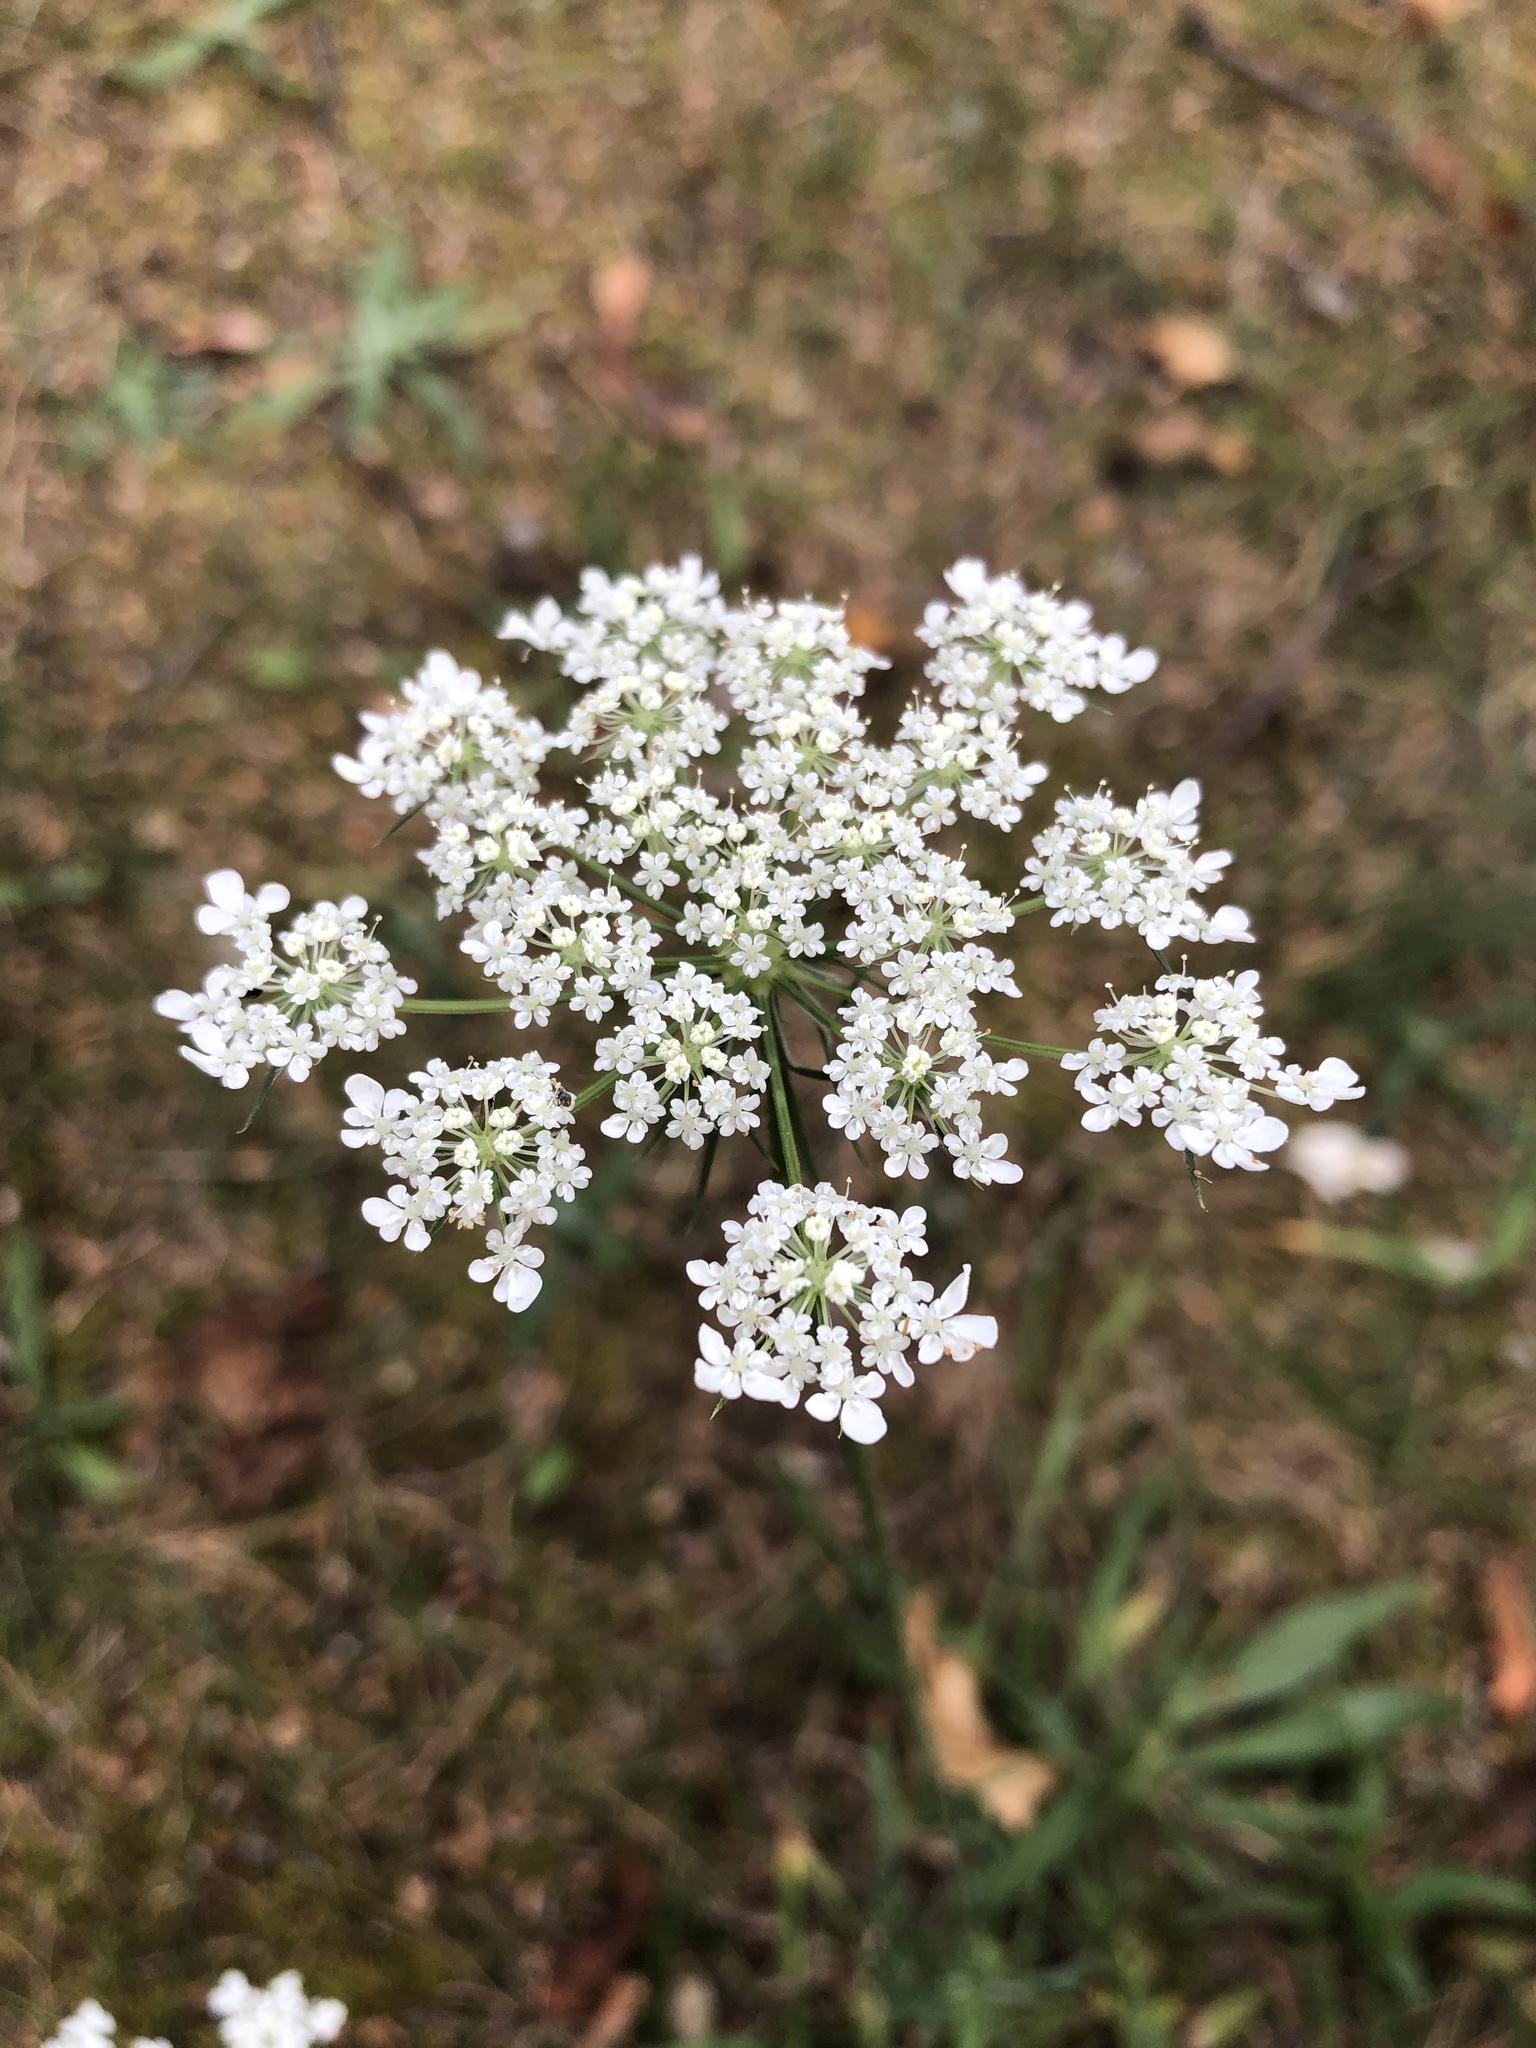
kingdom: Plantae
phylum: Tracheophyta
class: Magnoliopsida
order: Apiales
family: Apiaceae
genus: Daucus
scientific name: Daucus carota
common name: Wild carrot
